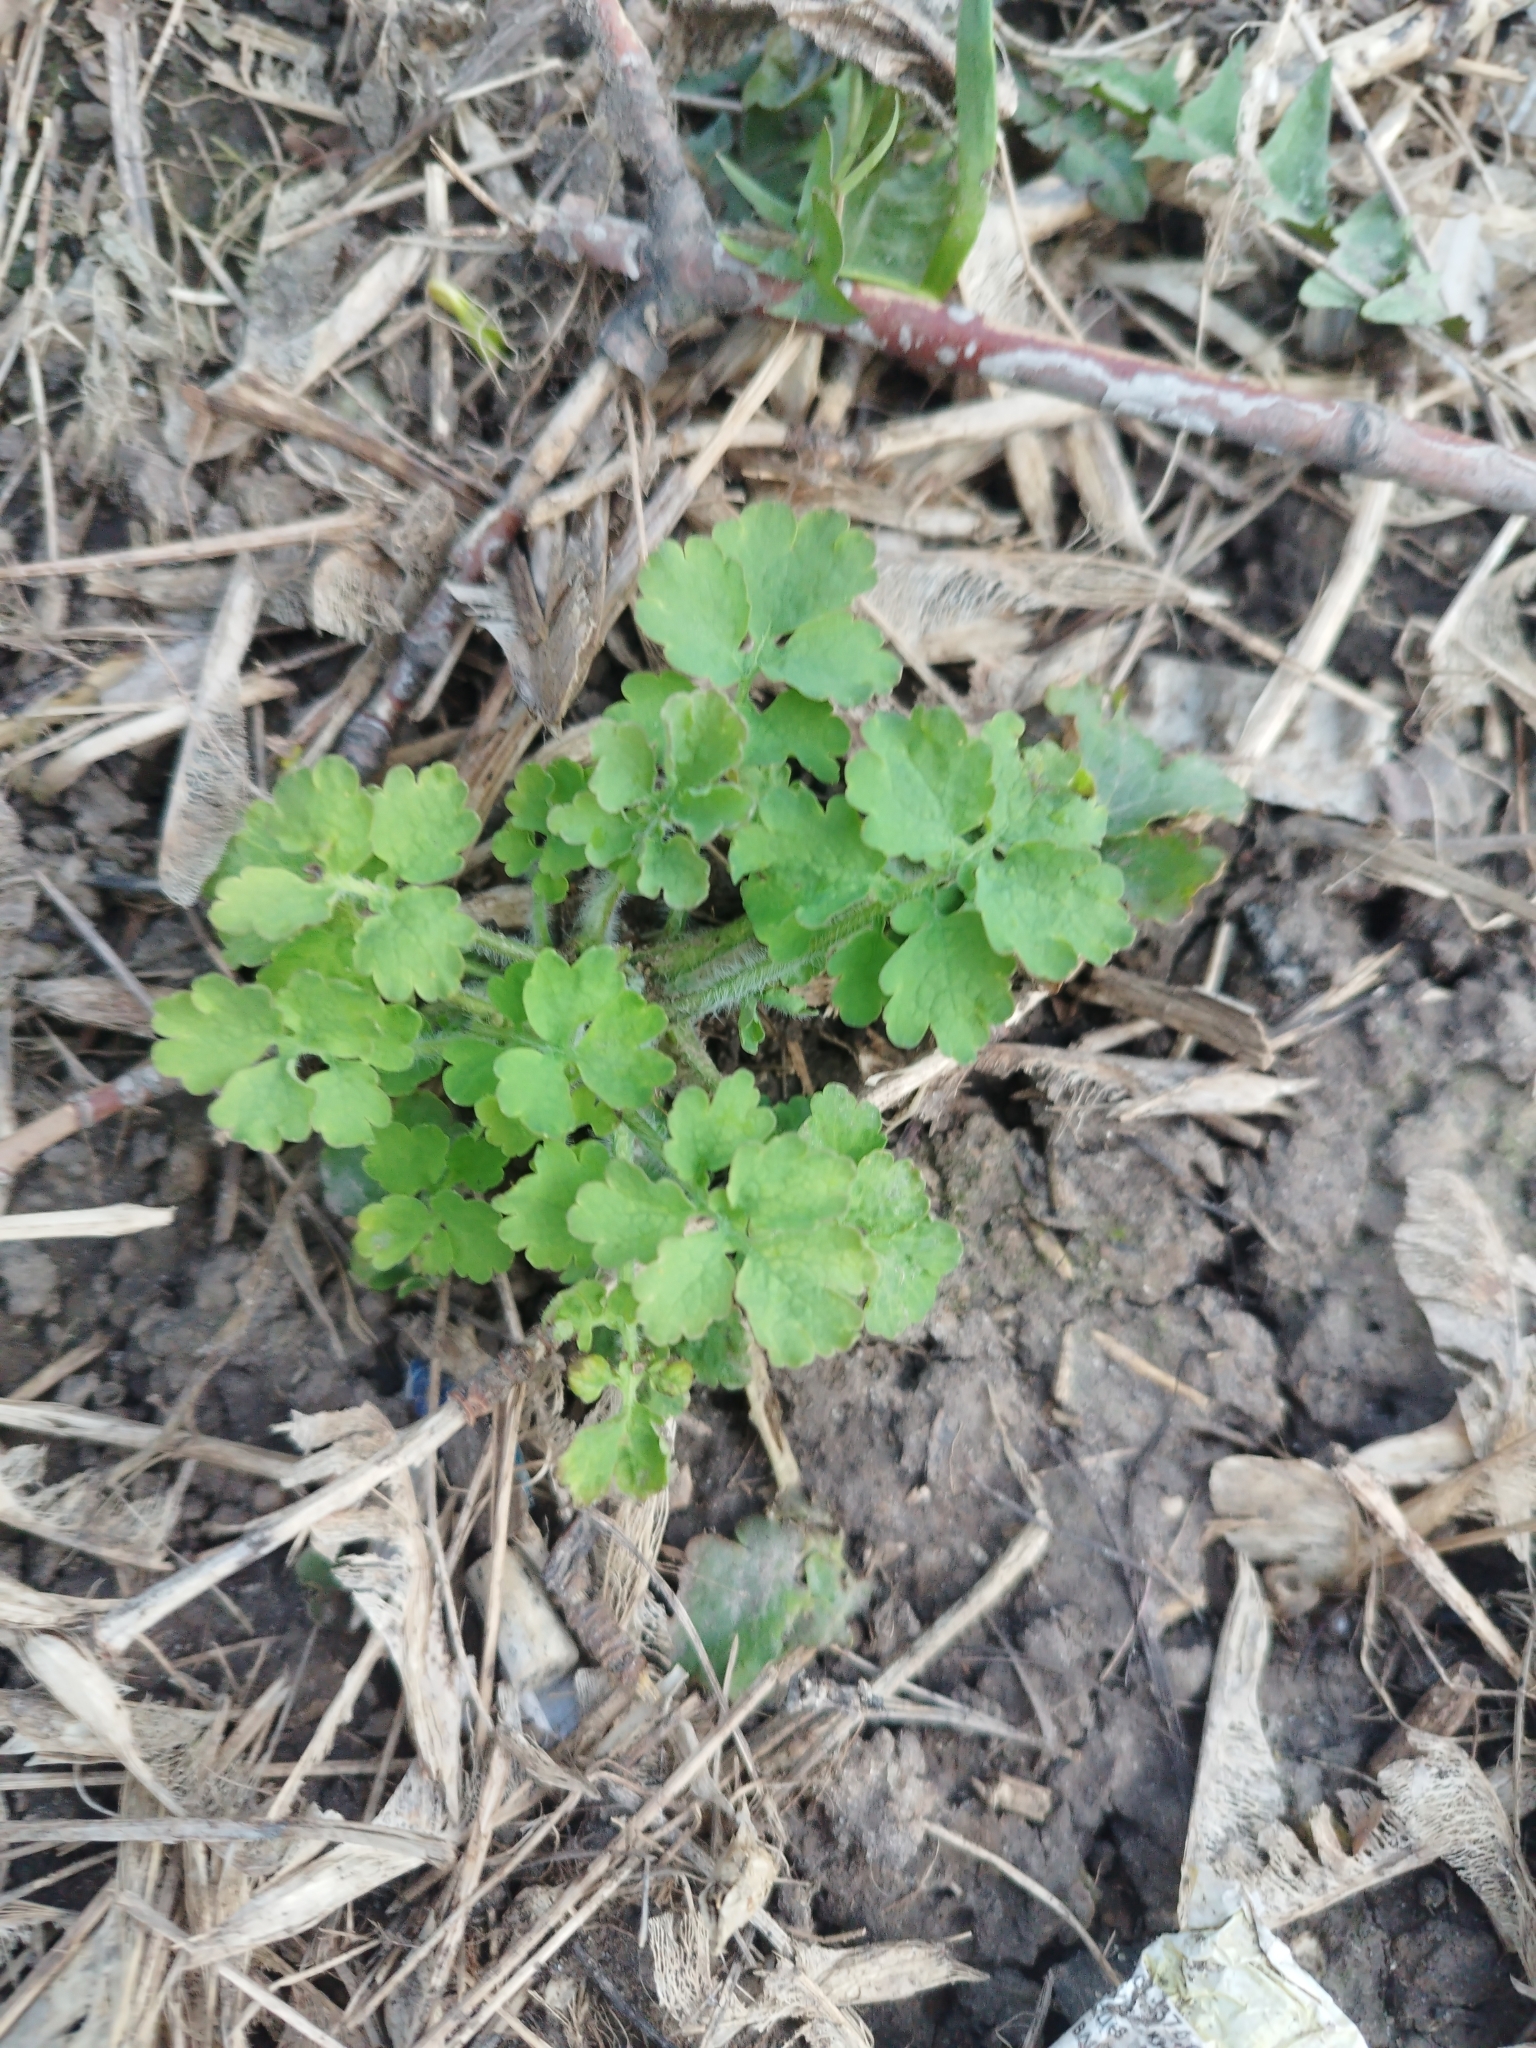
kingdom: Plantae
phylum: Tracheophyta
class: Magnoliopsida
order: Ranunculales
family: Papaveraceae
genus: Chelidonium
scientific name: Chelidonium majus
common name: Greater celandine
